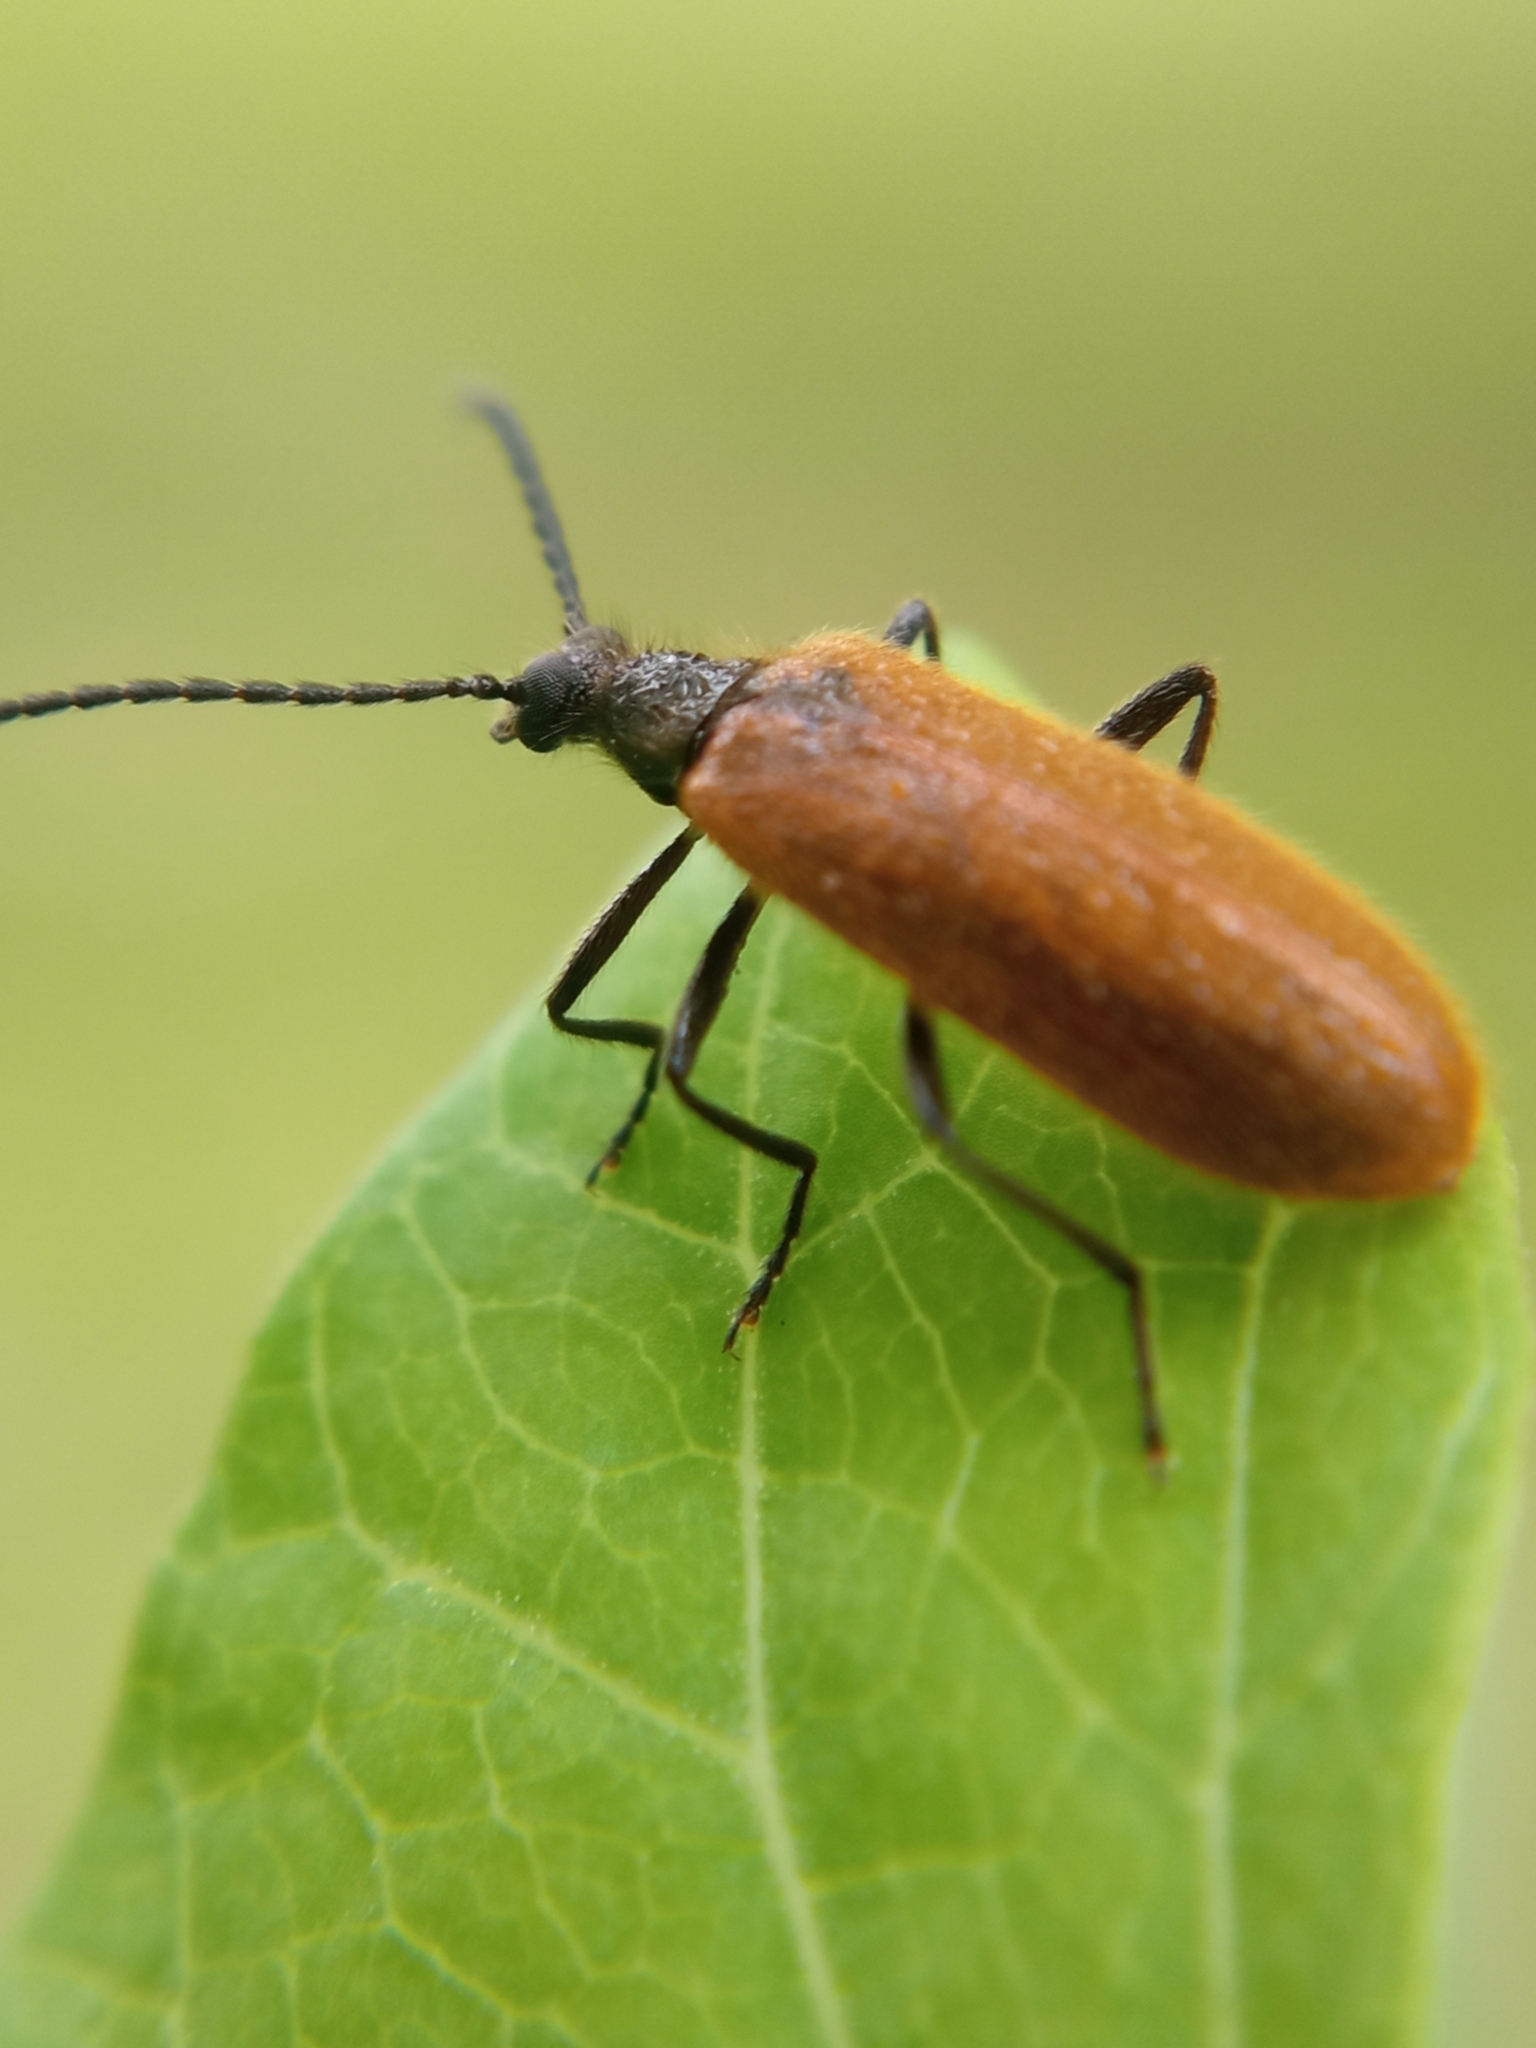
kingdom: Animalia
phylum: Arthropoda
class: Insecta
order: Coleoptera
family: Tenebrionidae
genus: Lagria
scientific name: Lagria hirta
